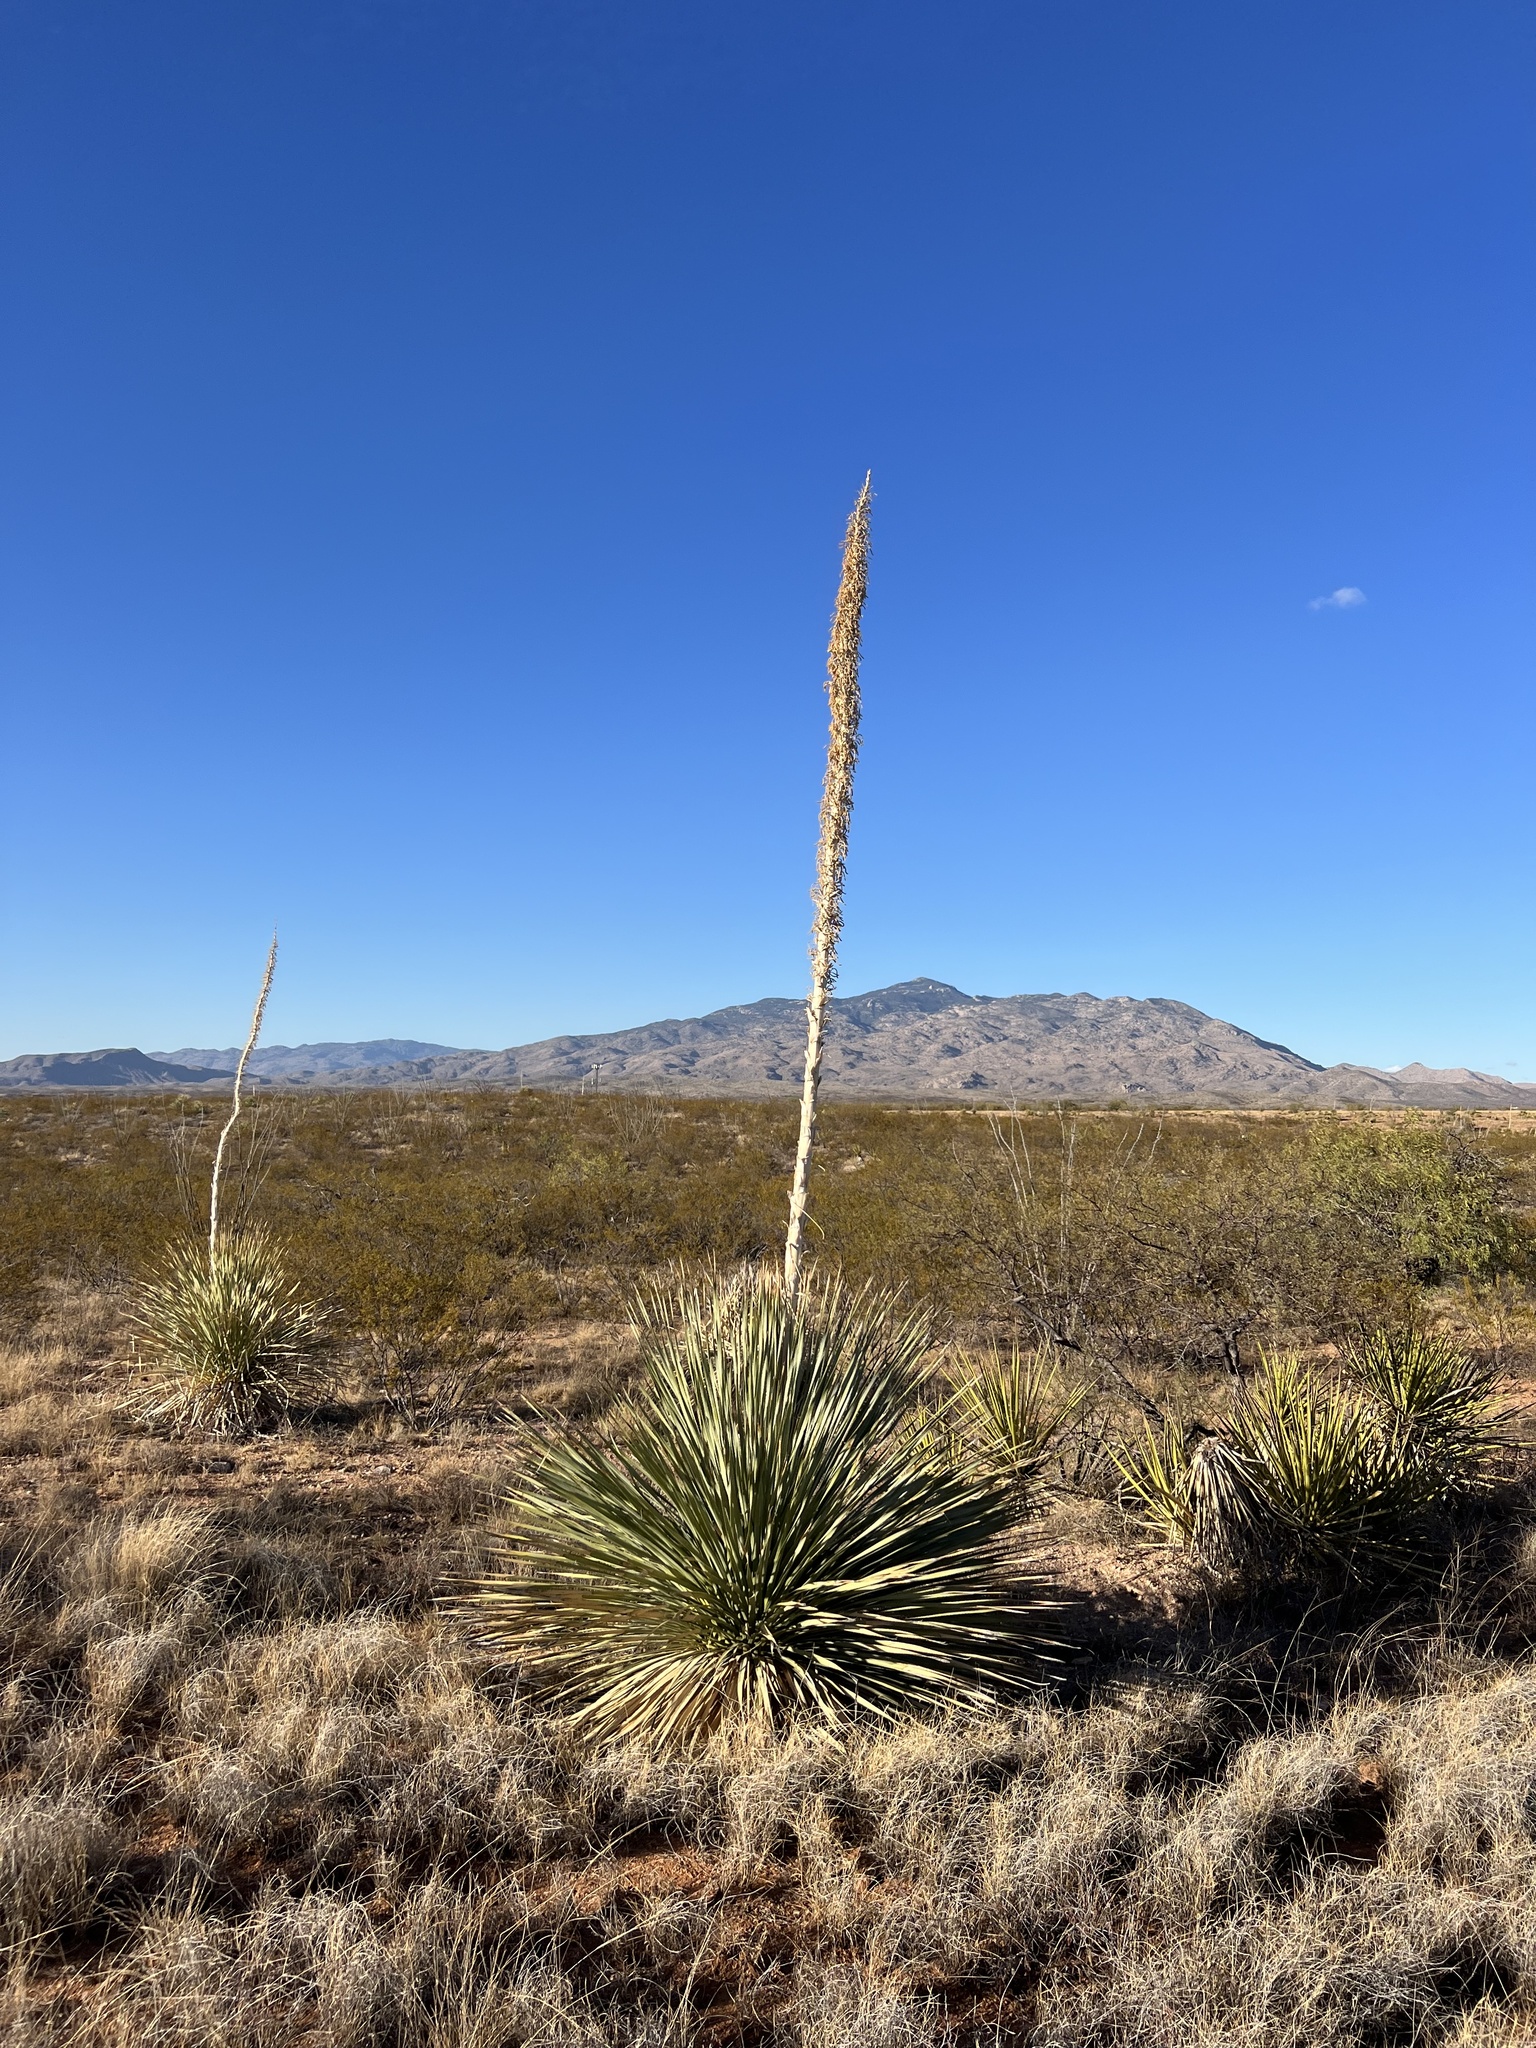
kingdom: Plantae
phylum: Tracheophyta
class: Liliopsida
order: Asparagales
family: Asparagaceae
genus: Dasylirion
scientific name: Dasylirion wheeleri
